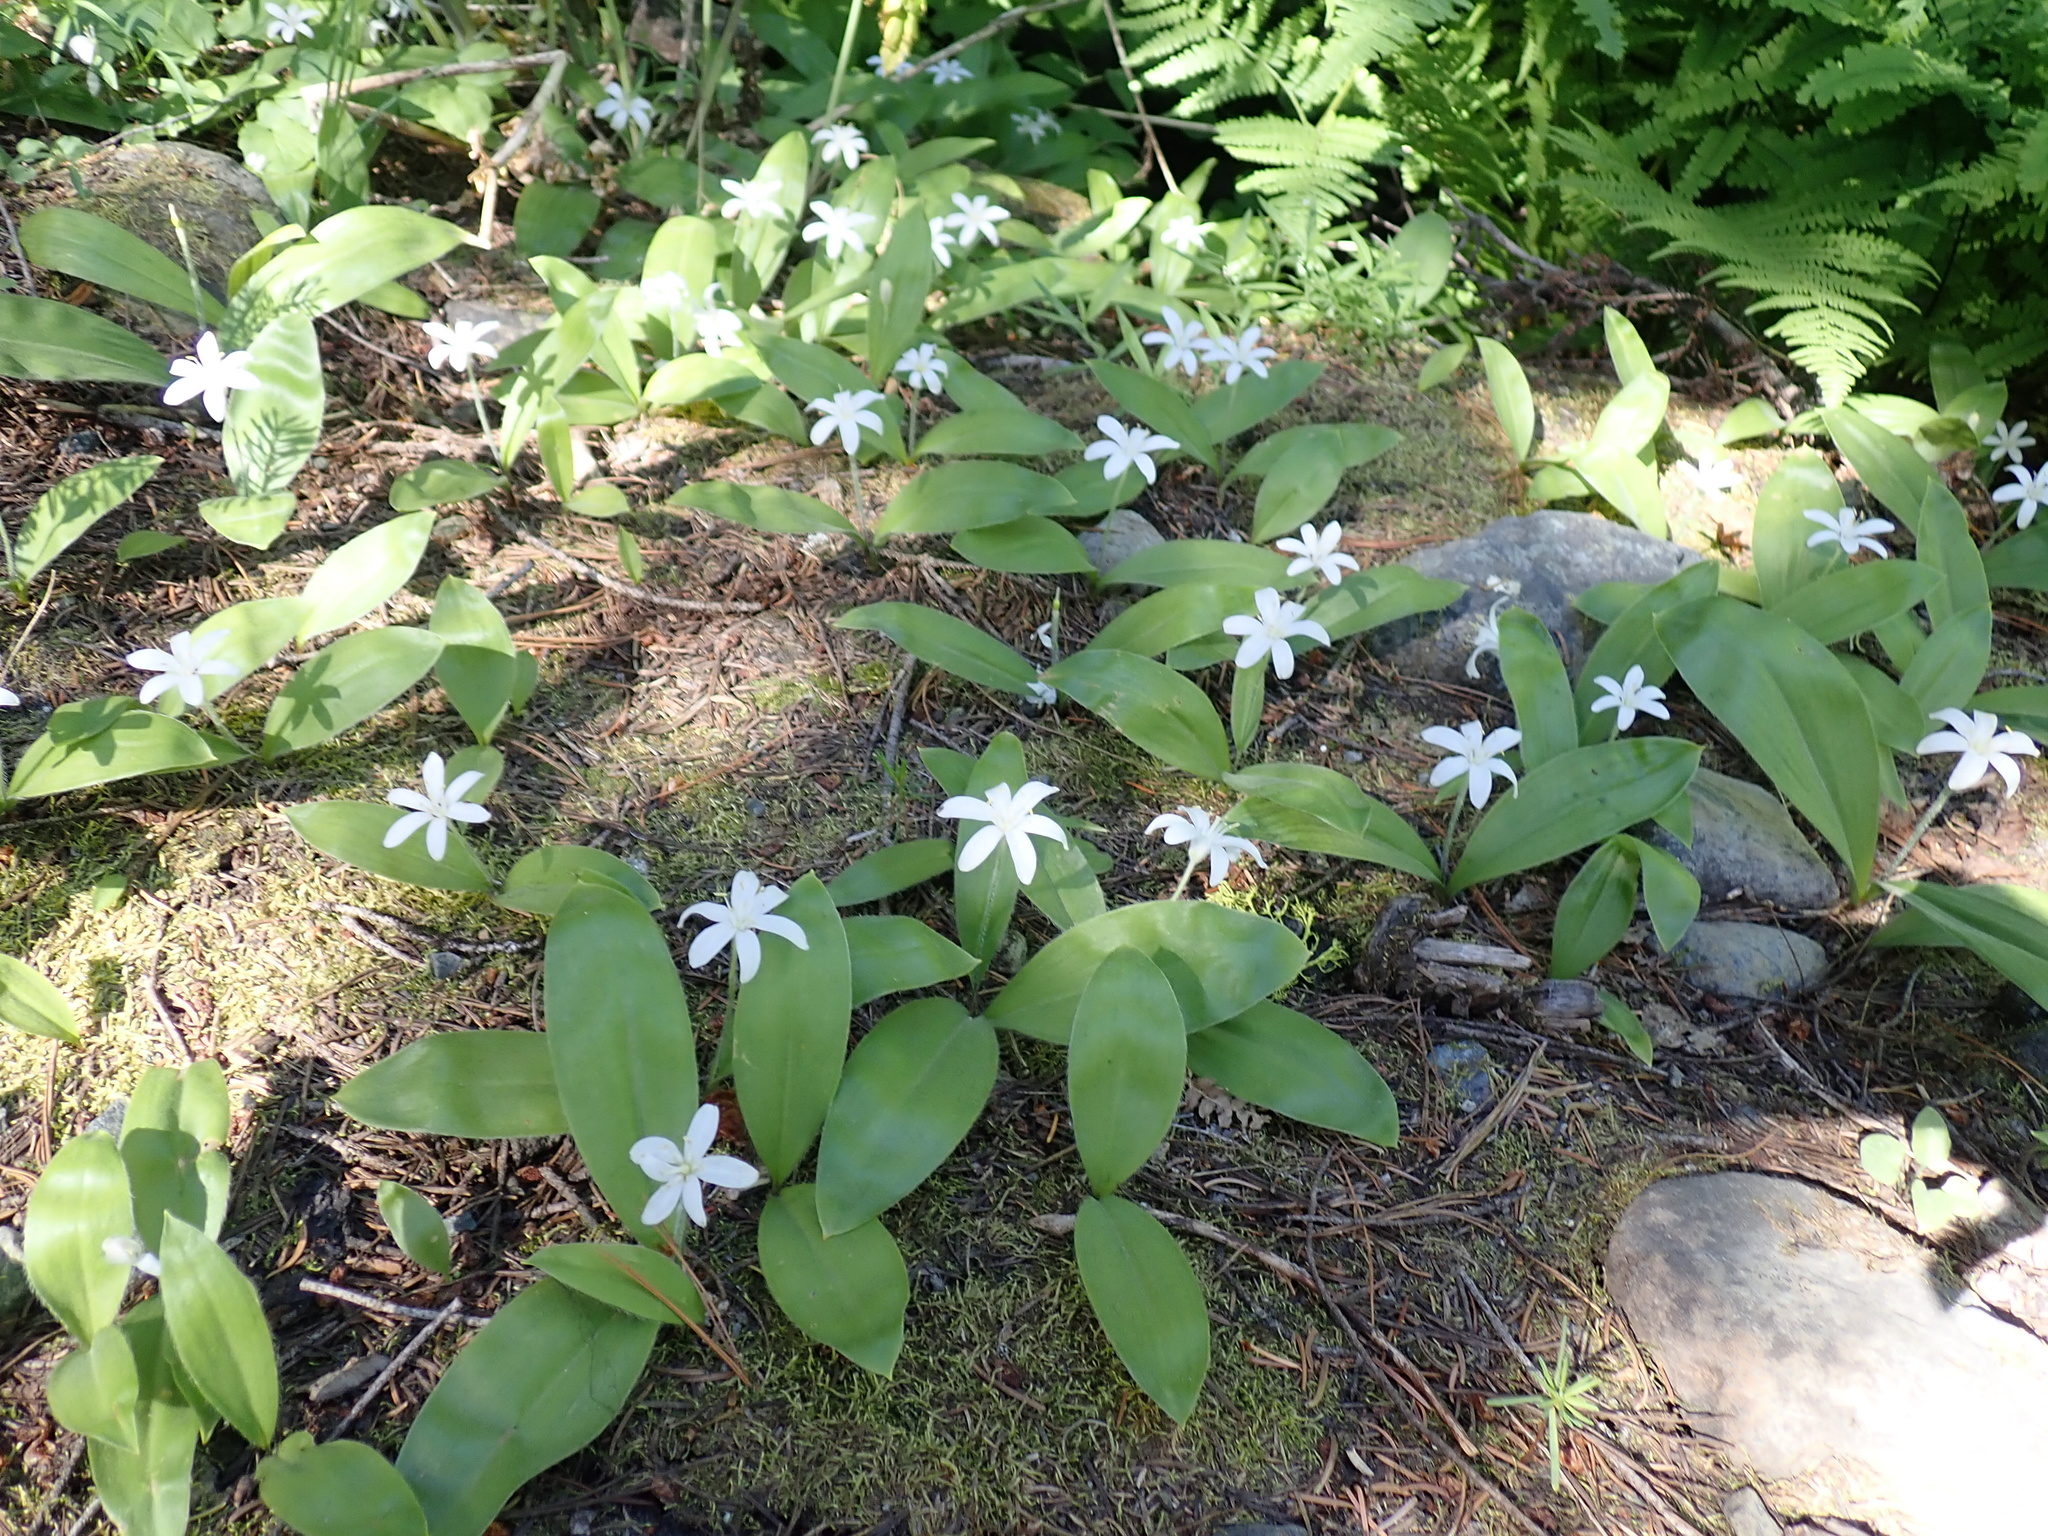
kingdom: Plantae
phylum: Tracheophyta
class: Liliopsida
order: Liliales
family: Liliaceae
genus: Clintonia
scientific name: Clintonia uniflora
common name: Queen's cup
